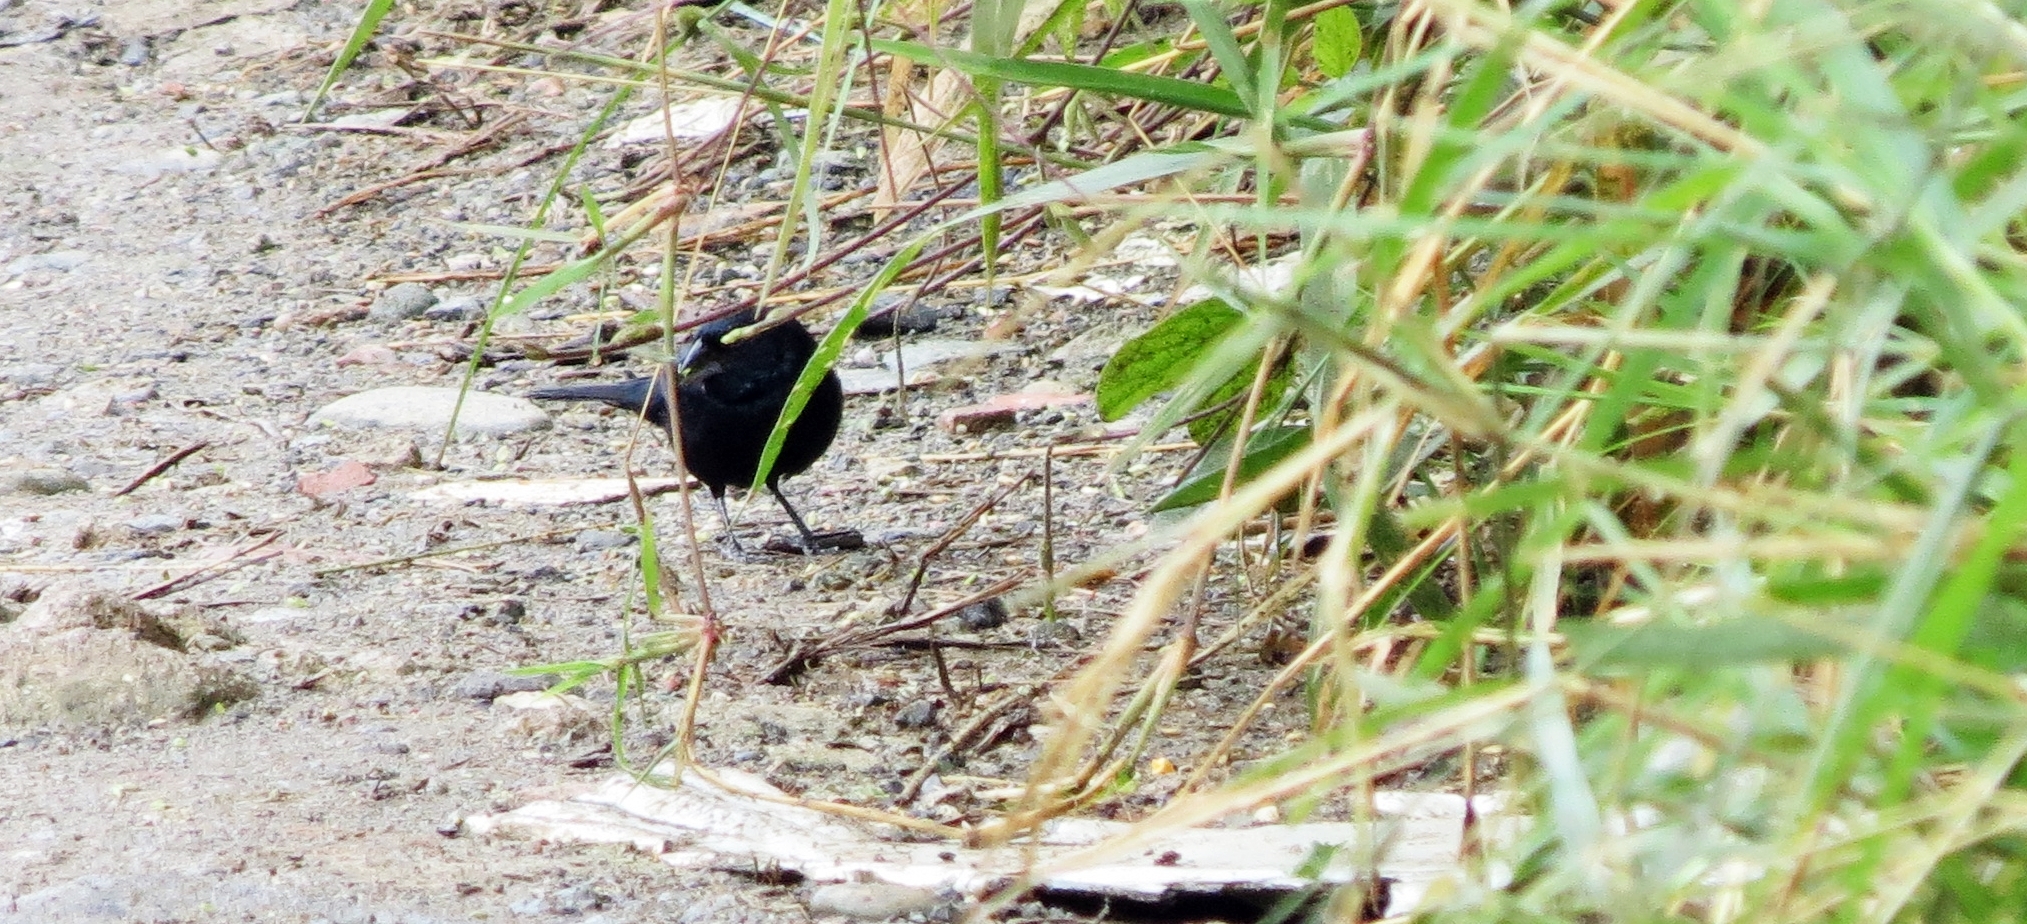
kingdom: Animalia
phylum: Chordata
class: Aves
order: Passeriformes
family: Thraupidae
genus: Volatinia
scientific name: Volatinia jacarina
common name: Blue-black grassquit
